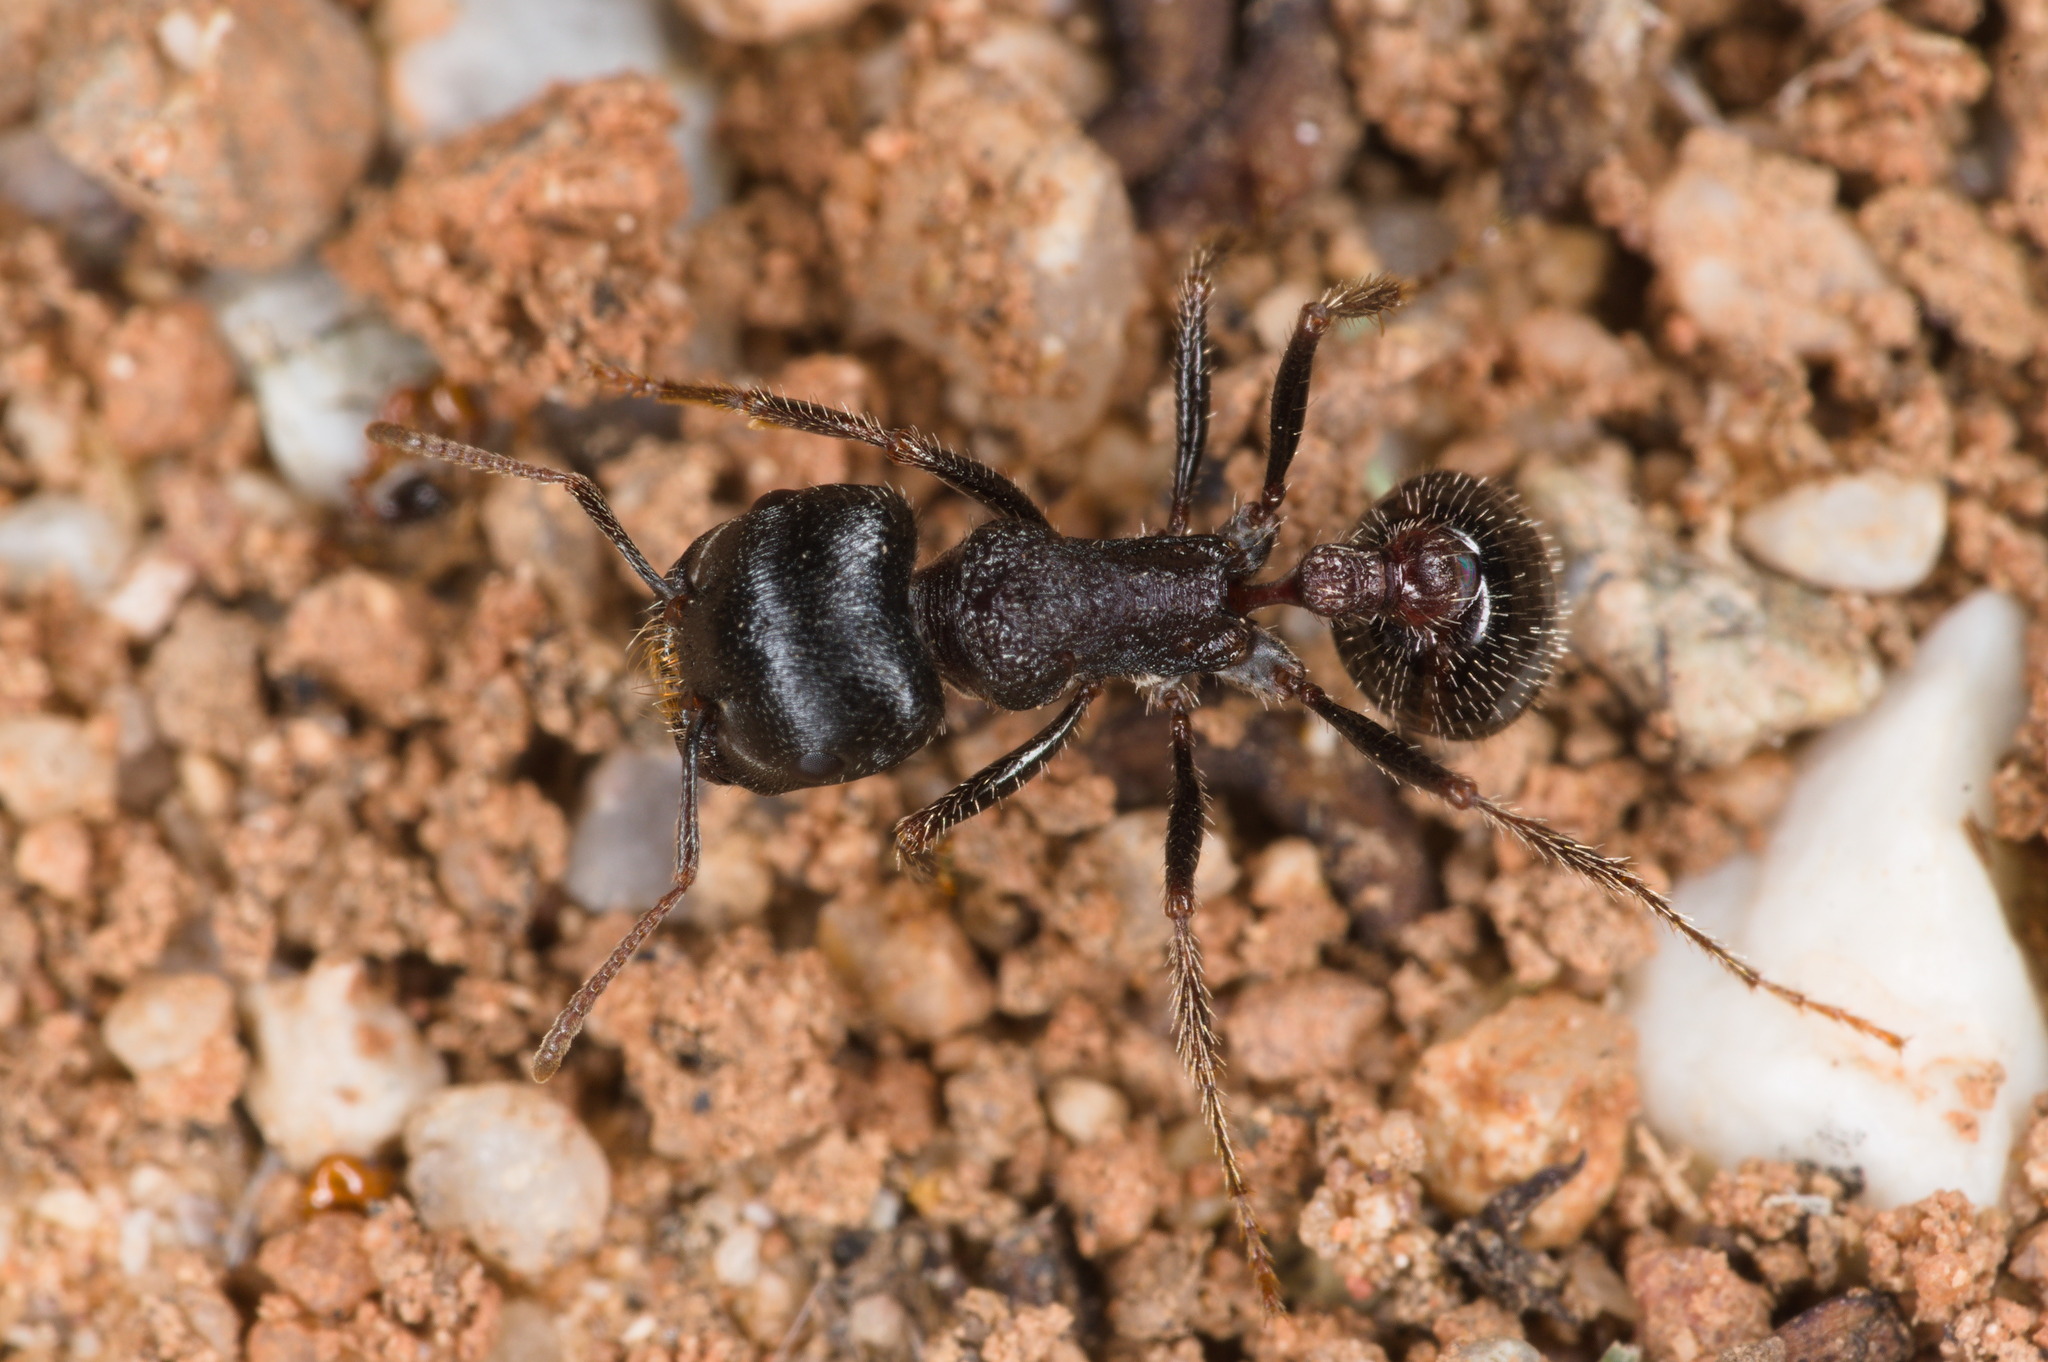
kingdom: Animalia
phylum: Arthropoda
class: Insecta
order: Hymenoptera
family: Formicidae
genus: Pogonomyrmex
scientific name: Pogonomyrmex rugosus
